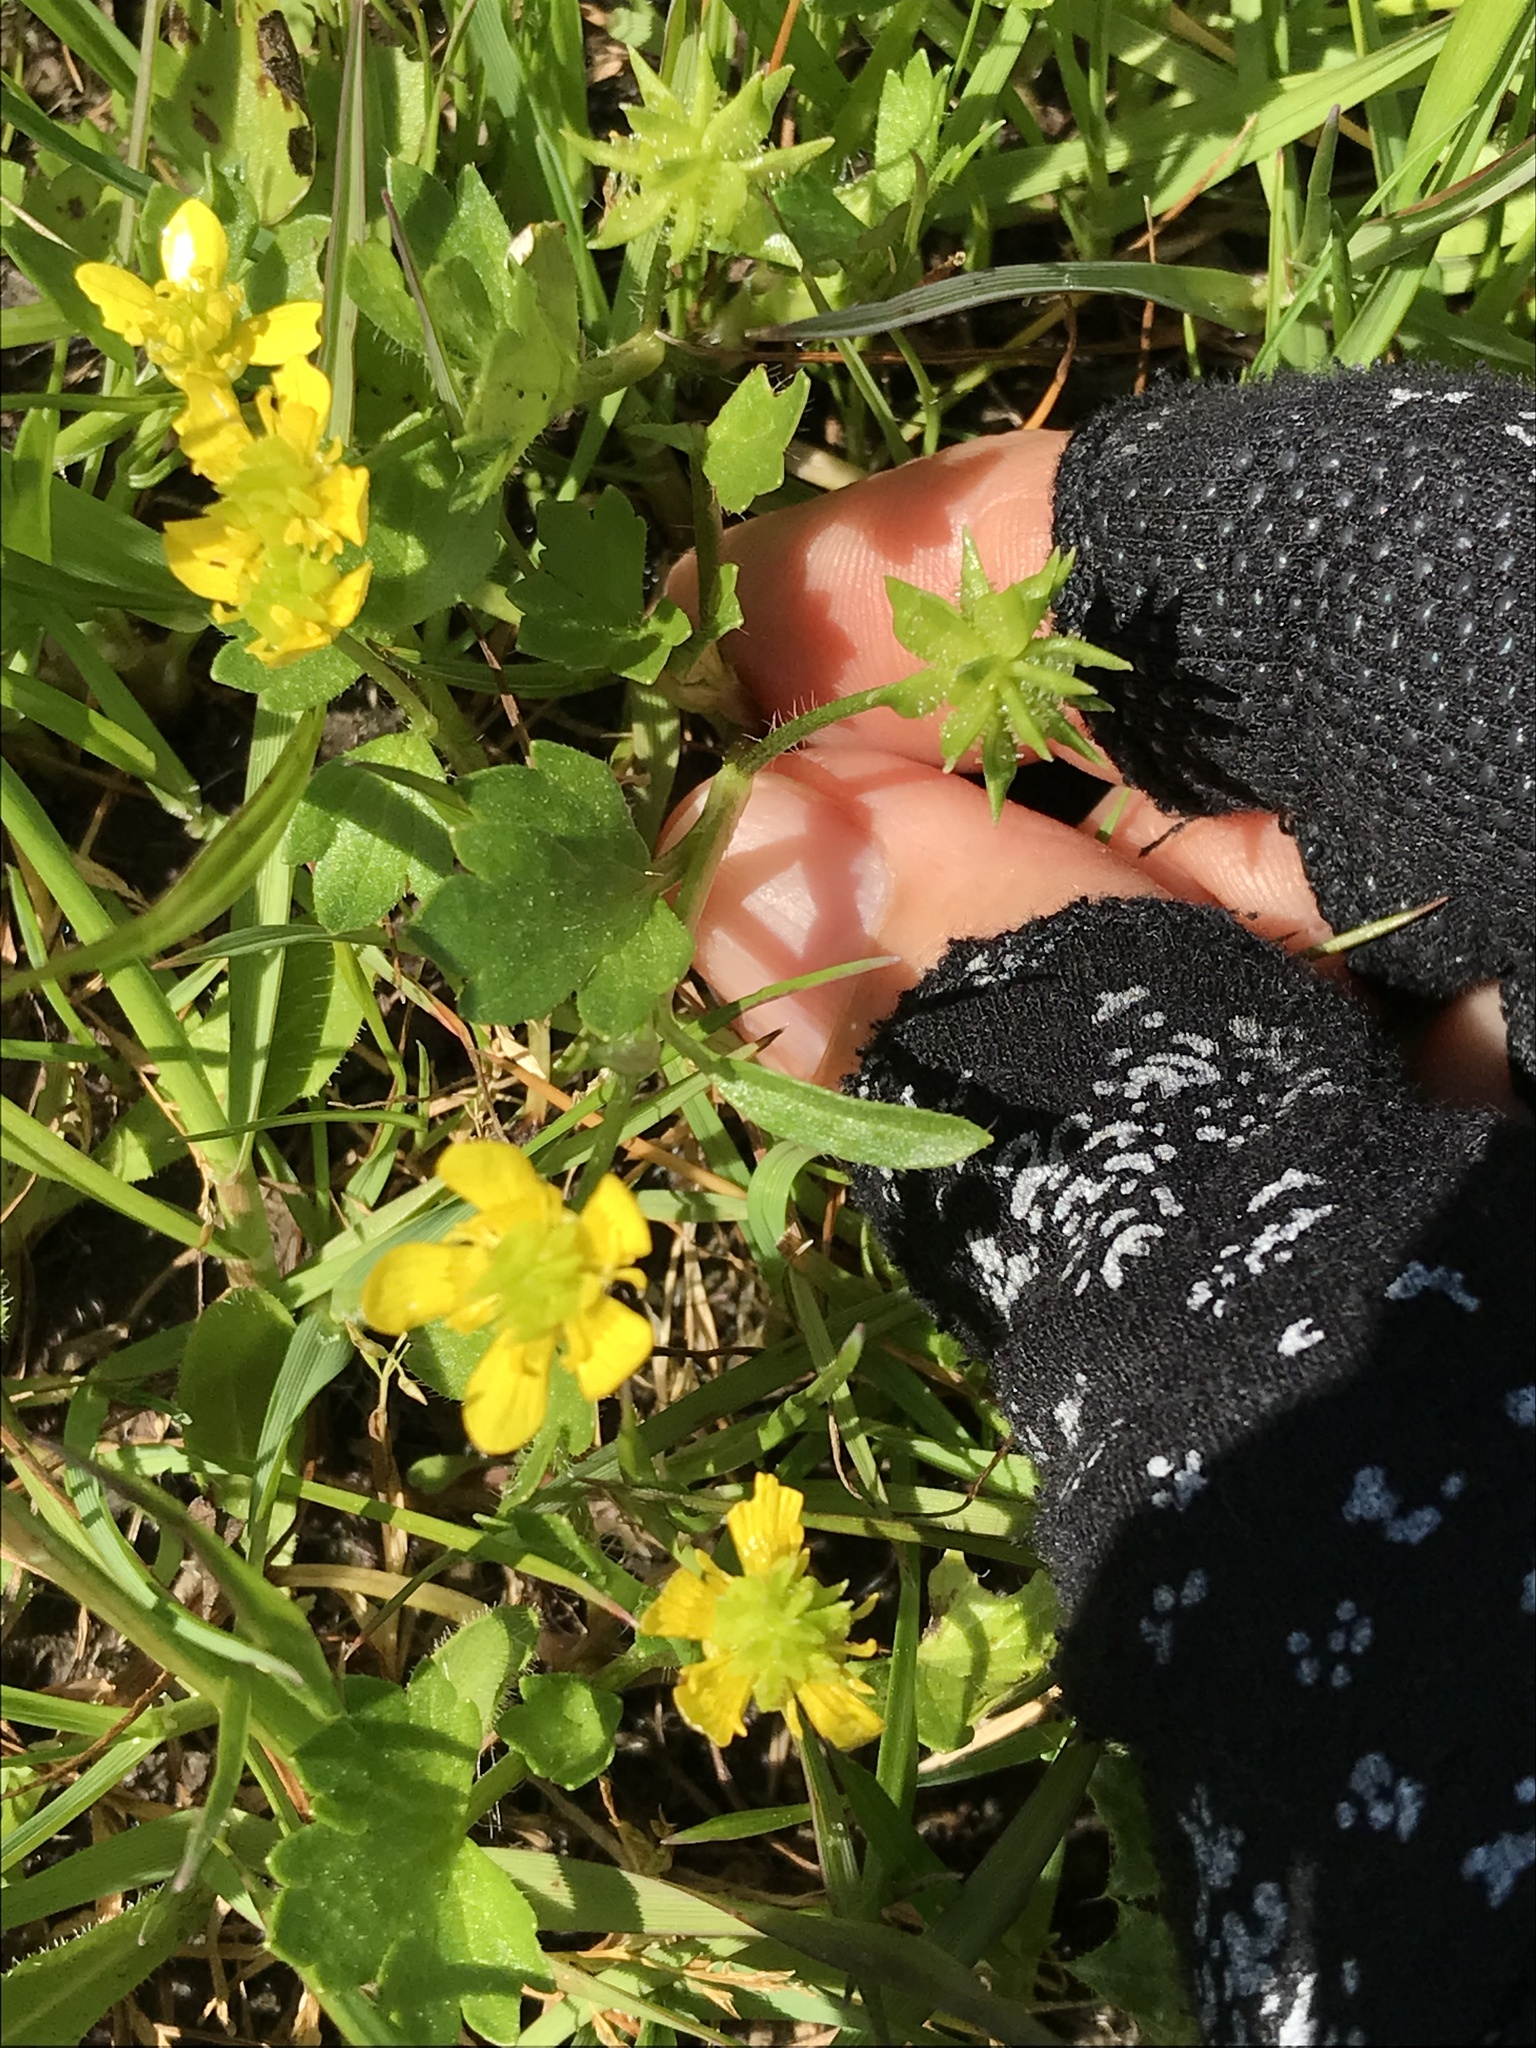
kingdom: Plantae
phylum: Tracheophyta
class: Magnoliopsida
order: Ranunculales
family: Ranunculaceae
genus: Ranunculus
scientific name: Ranunculus muricatus
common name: Rough-fruited buttercup
